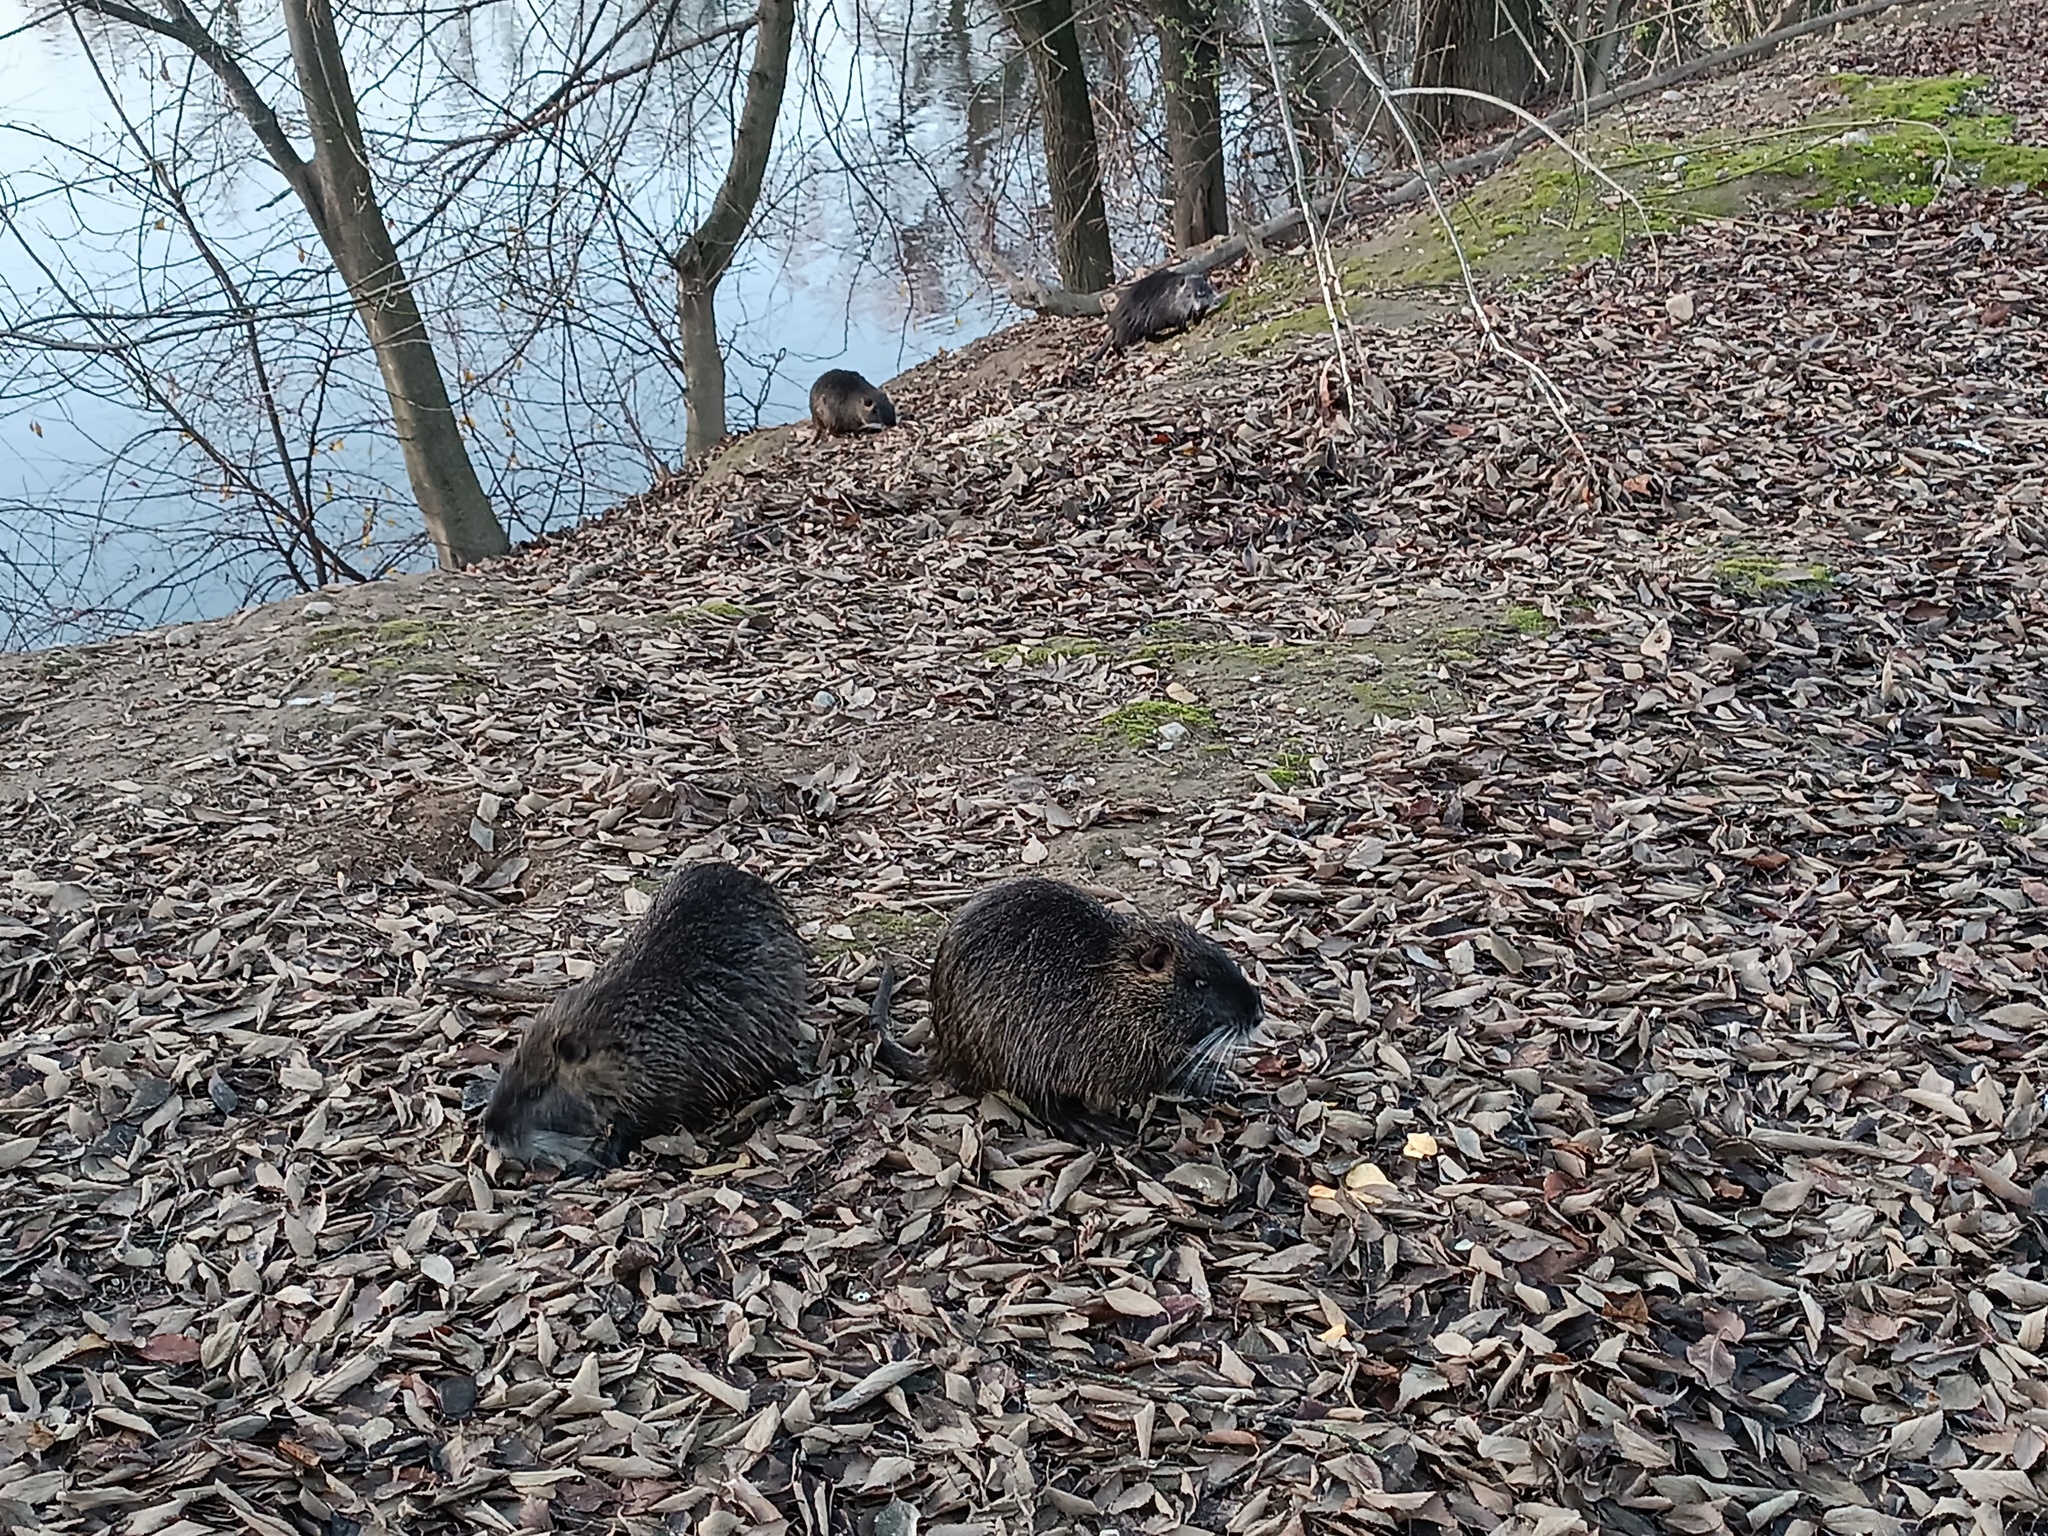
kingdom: Animalia
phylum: Chordata
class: Mammalia
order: Rodentia
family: Myocastoridae
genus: Myocastor
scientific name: Myocastor coypus
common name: Coypu
